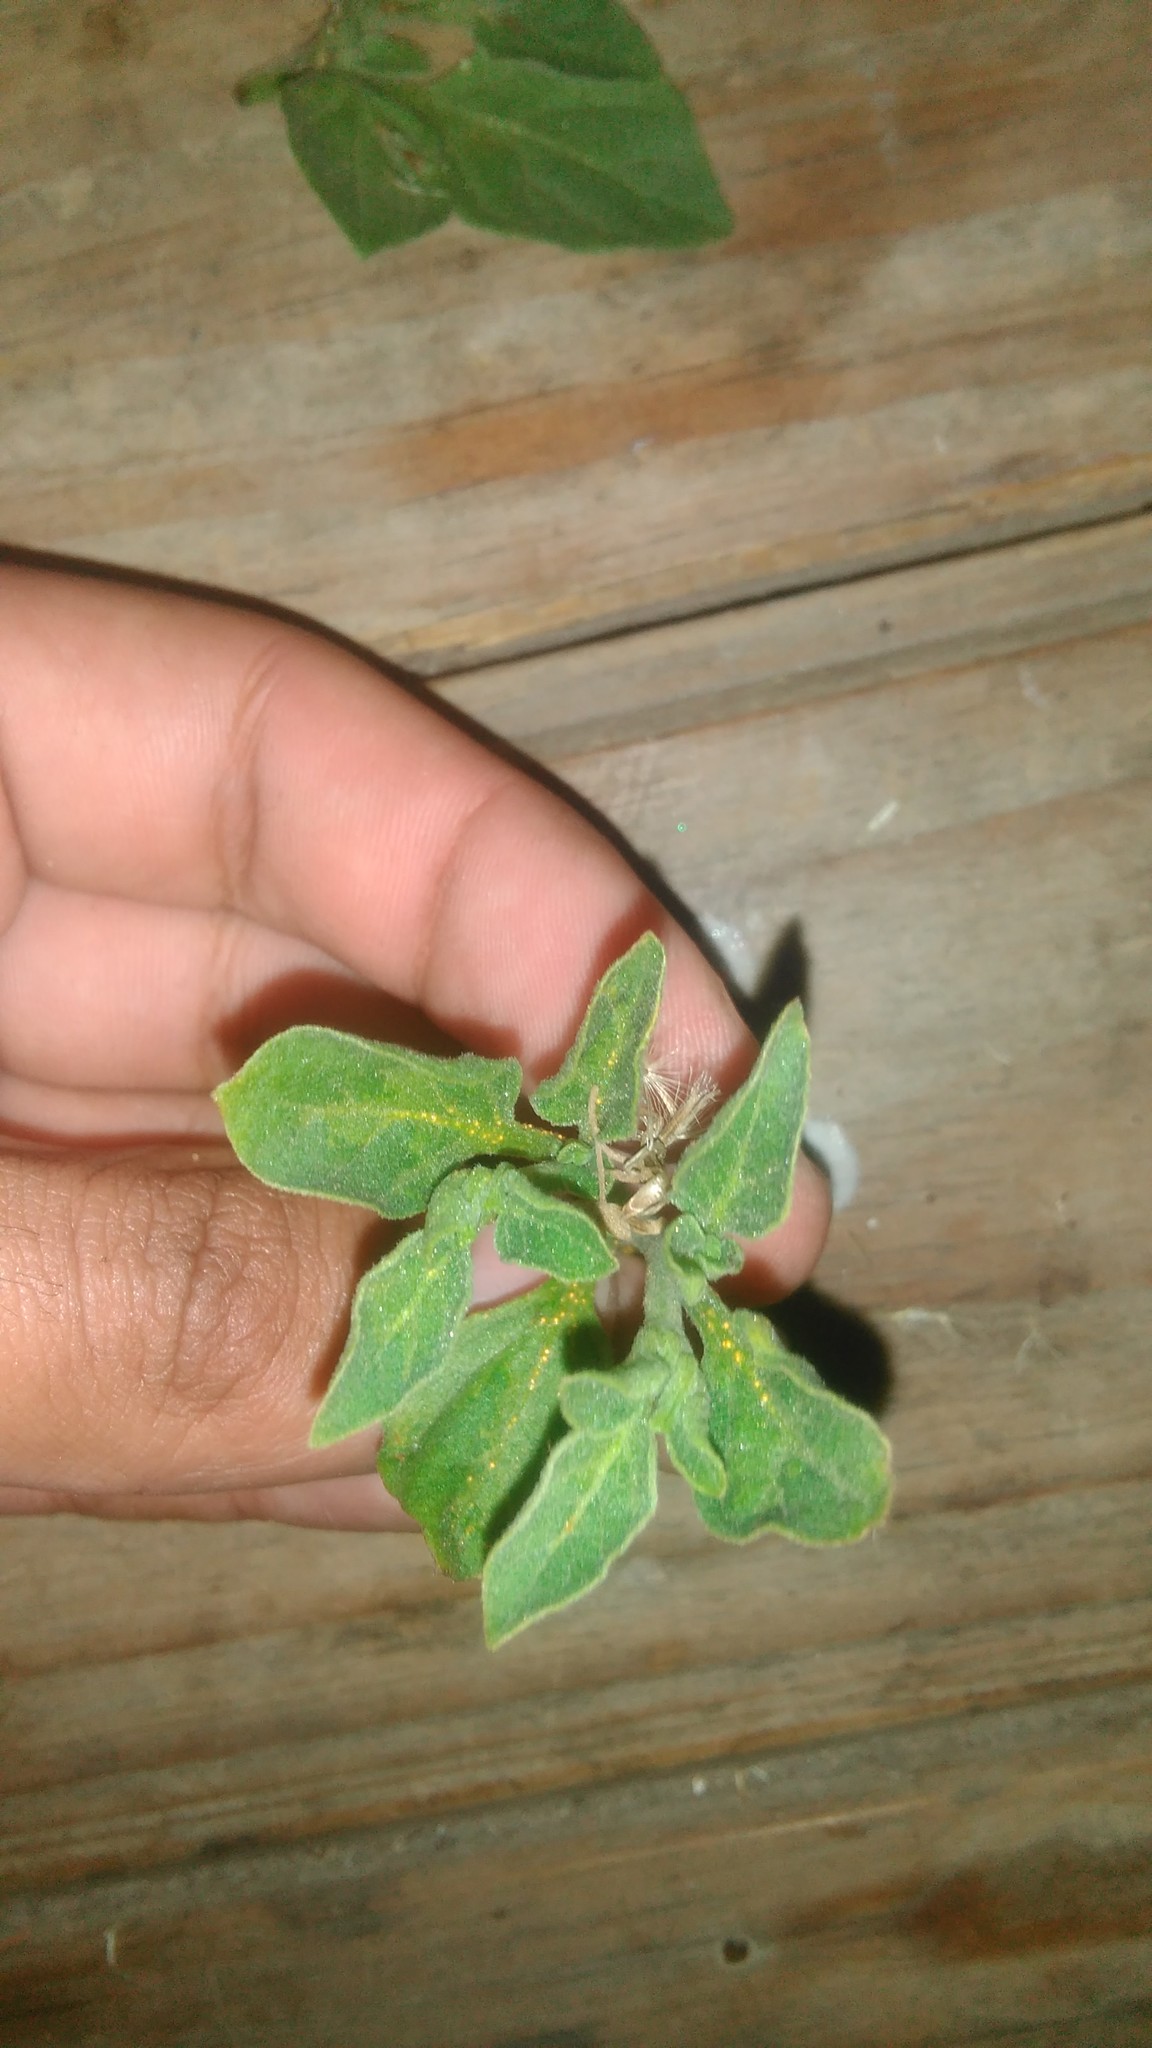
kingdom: Plantae
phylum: Tracheophyta
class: Magnoliopsida
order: Solanales
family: Solanaceae
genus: Salpichroa
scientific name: Salpichroa origanifolia
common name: Lily-of-the-valley-vine
